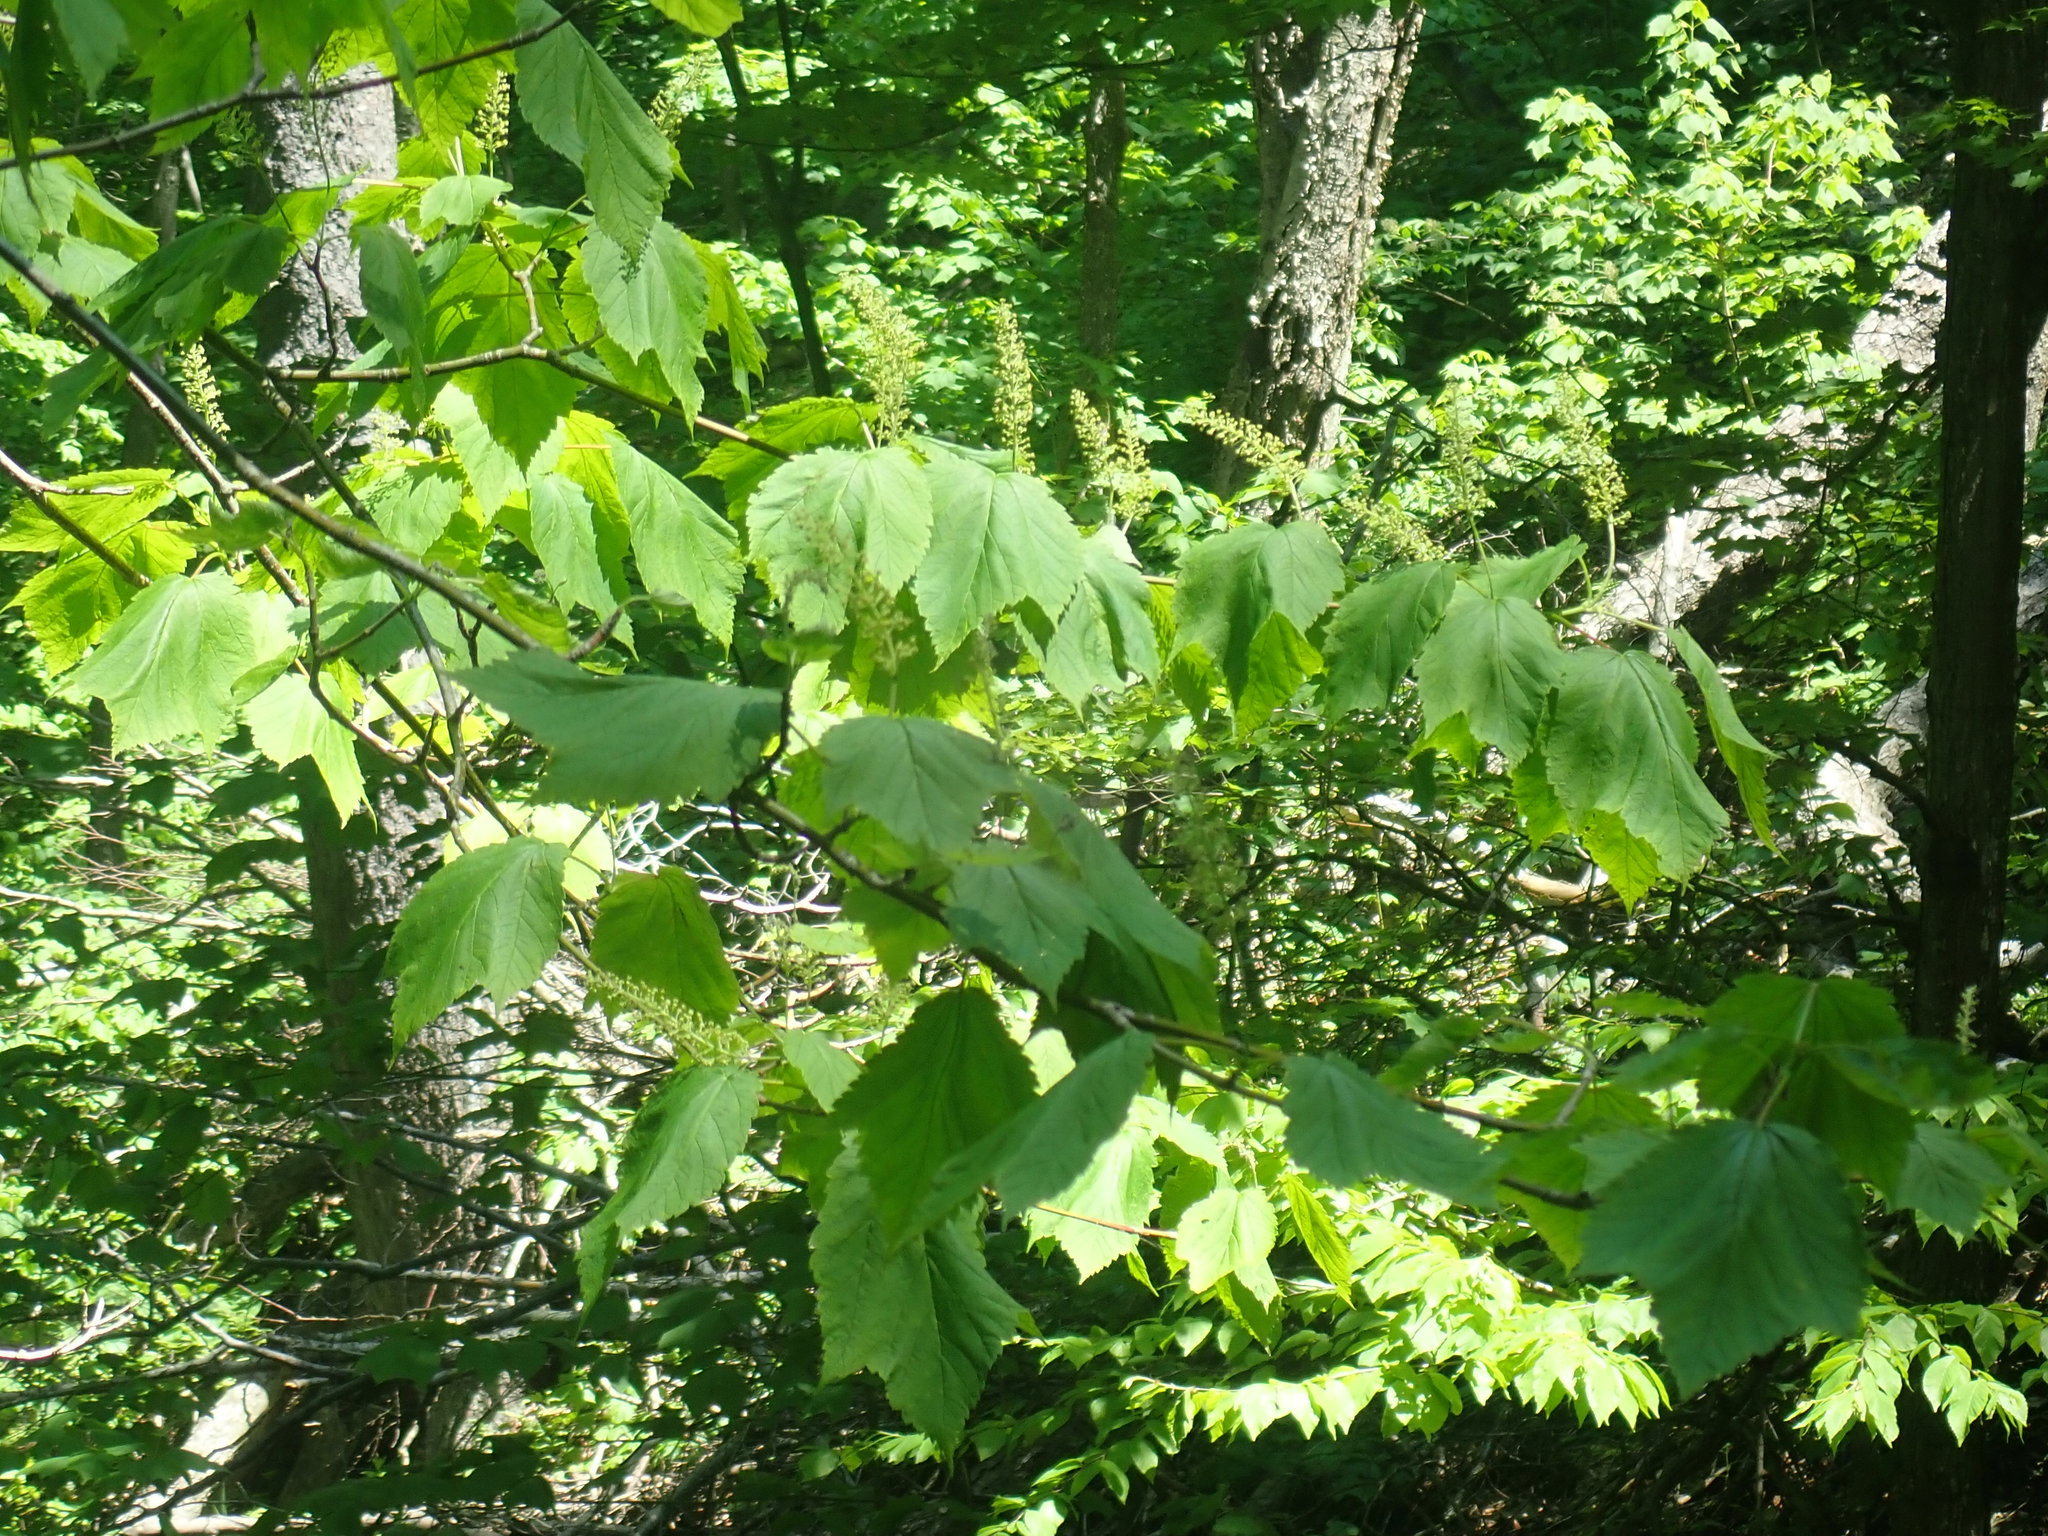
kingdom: Plantae
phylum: Tracheophyta
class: Magnoliopsida
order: Sapindales
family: Sapindaceae
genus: Acer
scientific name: Acer spicatum
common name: Mountain maple
